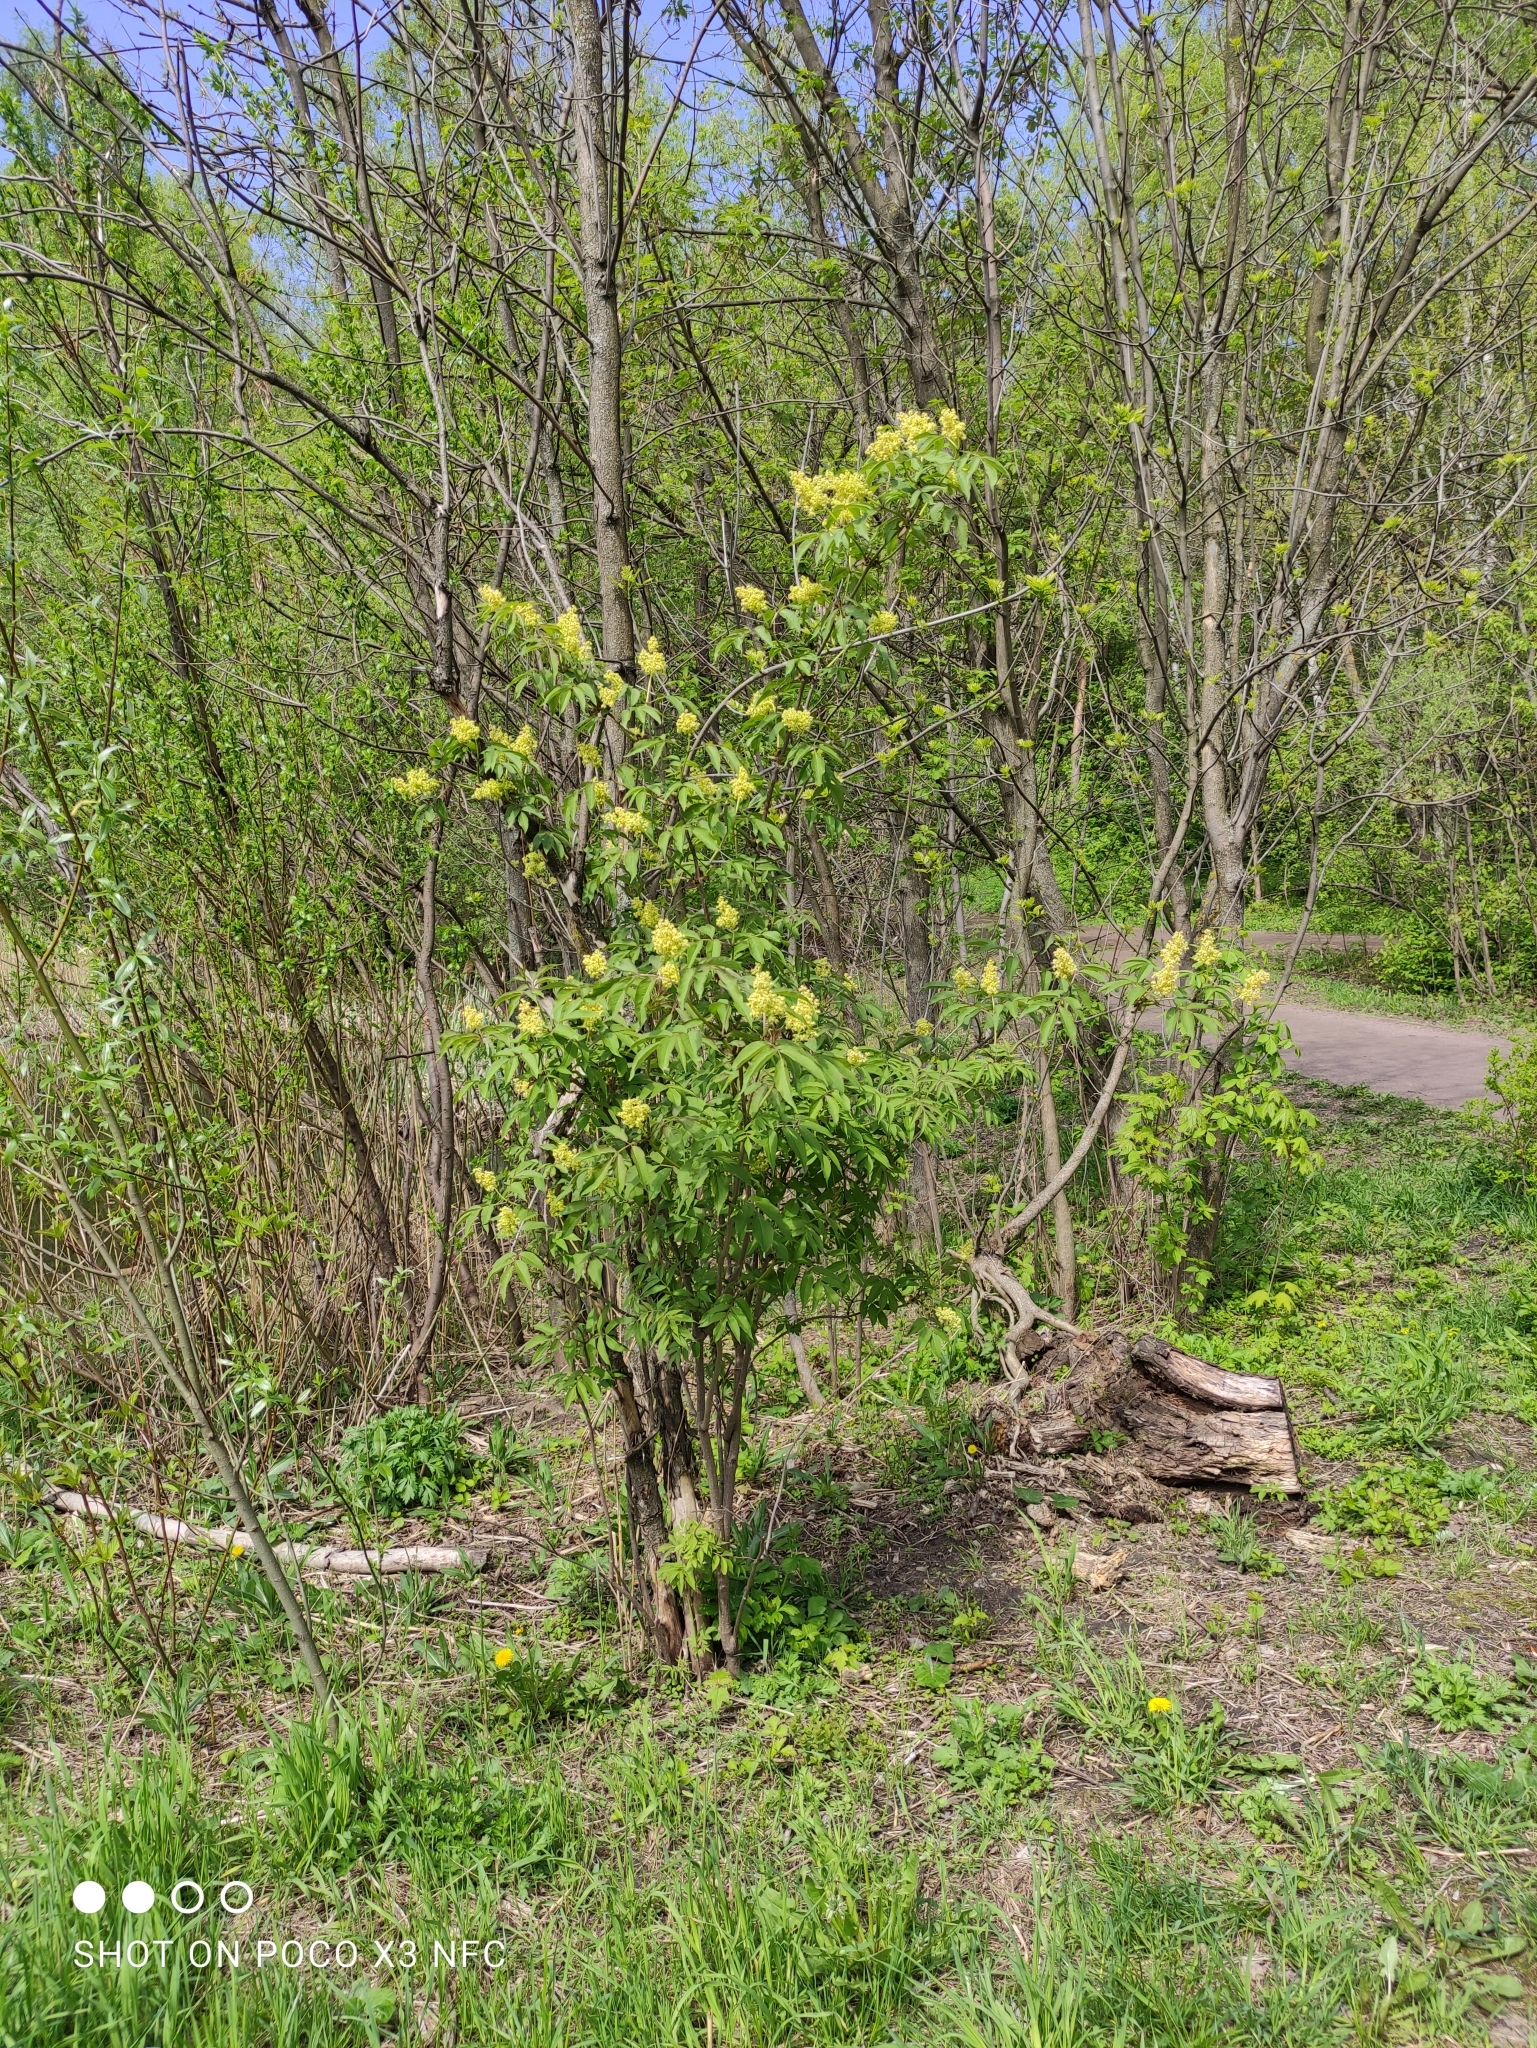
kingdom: Plantae
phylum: Tracheophyta
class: Magnoliopsida
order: Dipsacales
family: Viburnaceae
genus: Sambucus
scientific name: Sambucus racemosa
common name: Red-berried elder
